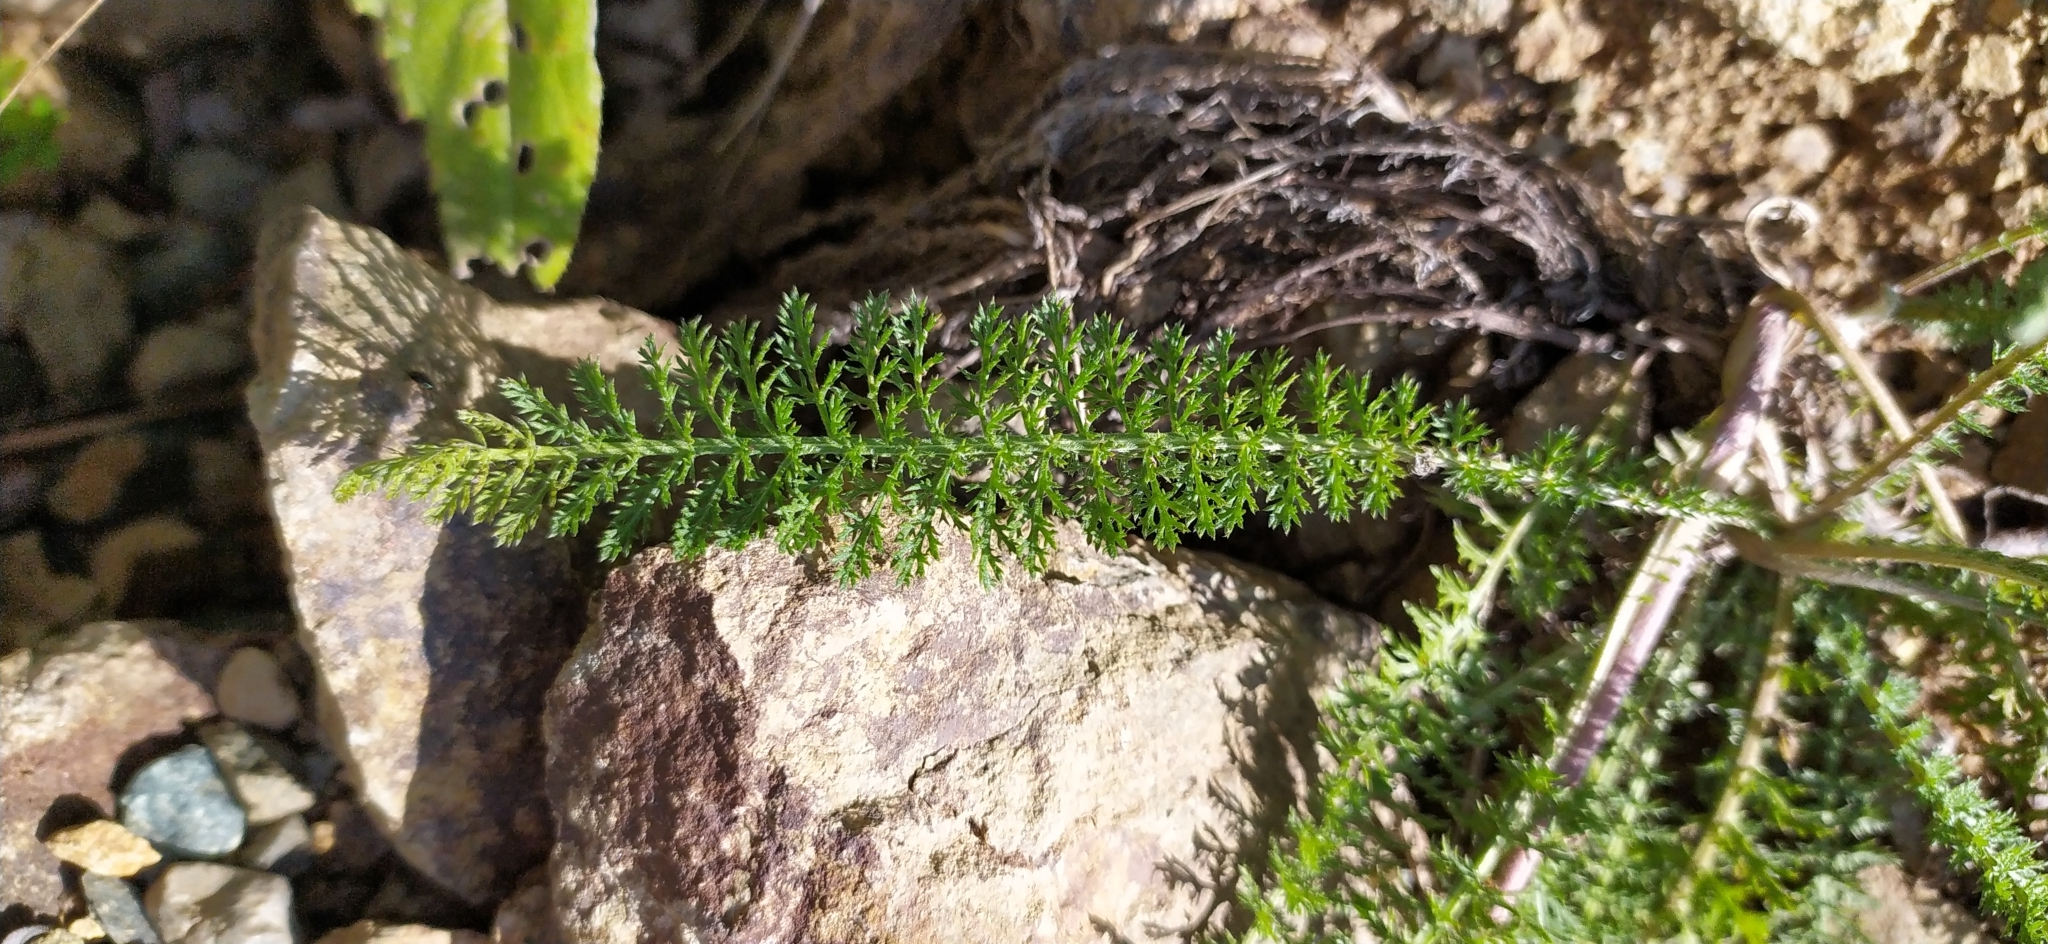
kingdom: Plantae
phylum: Tracheophyta
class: Magnoliopsida
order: Asterales
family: Asteraceae
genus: Achillea
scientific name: Achillea asiatica
